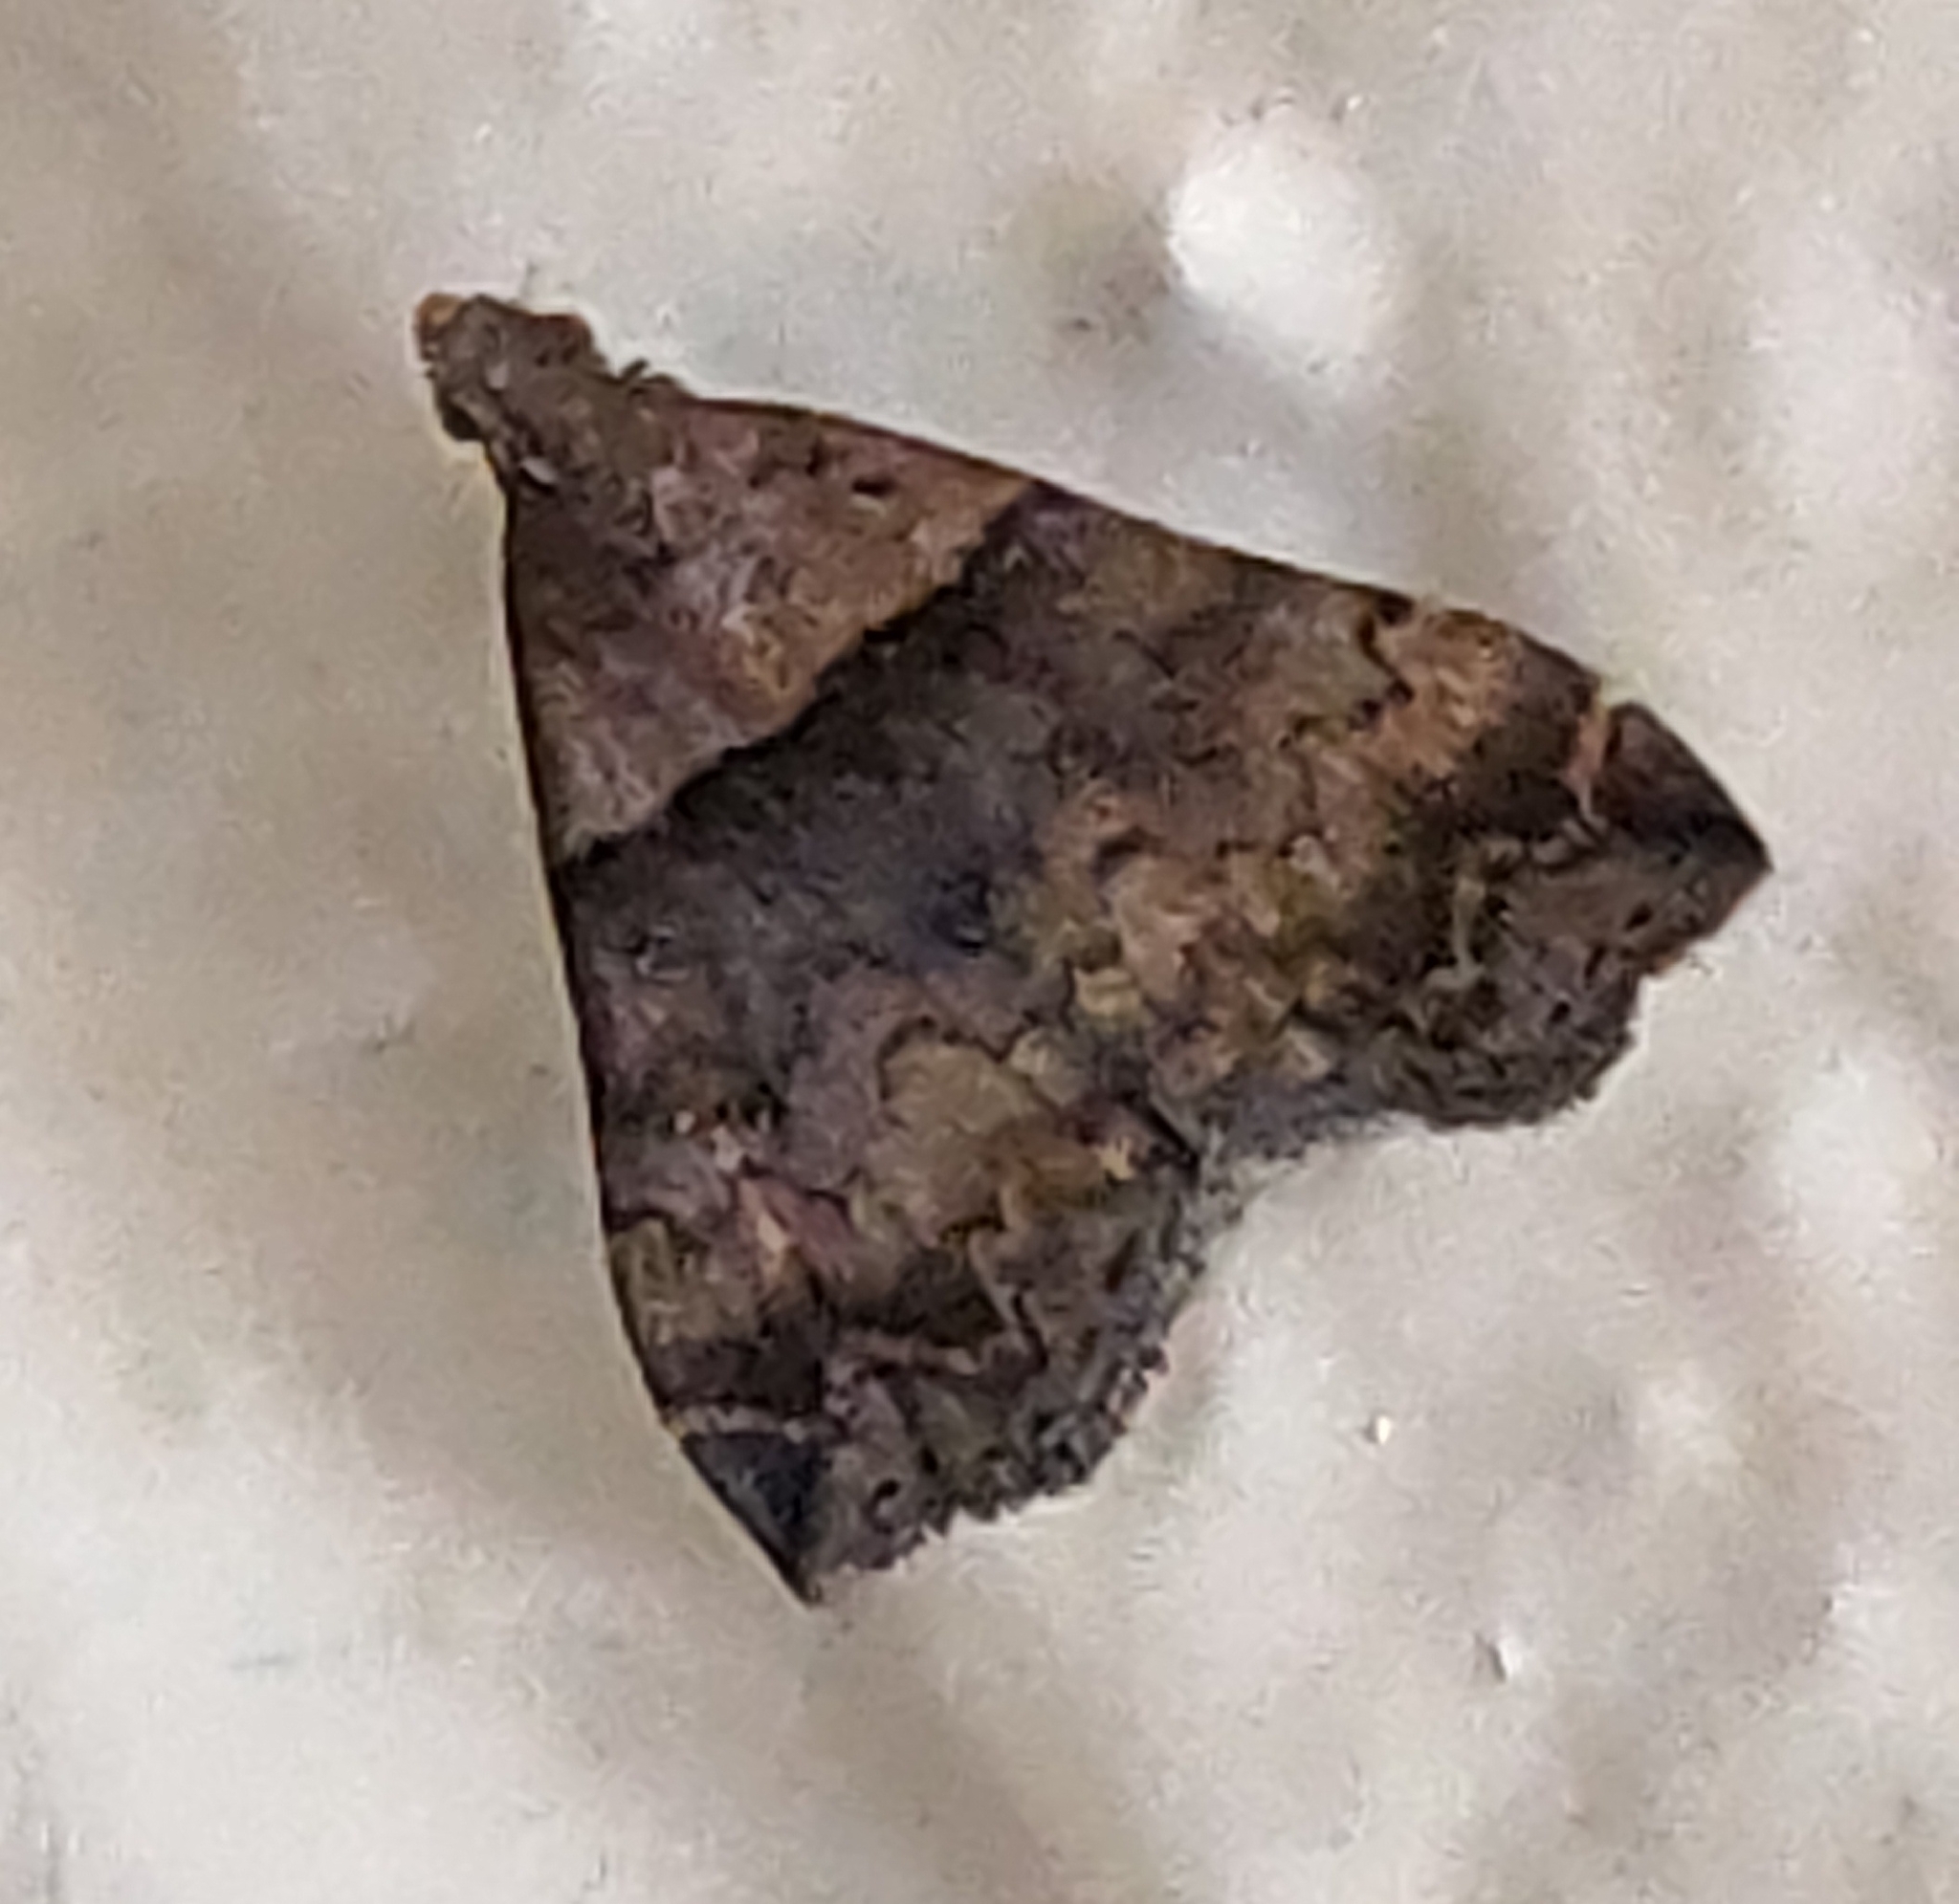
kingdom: Animalia
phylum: Arthropoda
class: Insecta
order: Lepidoptera
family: Erebidae
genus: Lascoria
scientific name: Lascoria ambigualis
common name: Ambiguous moth
